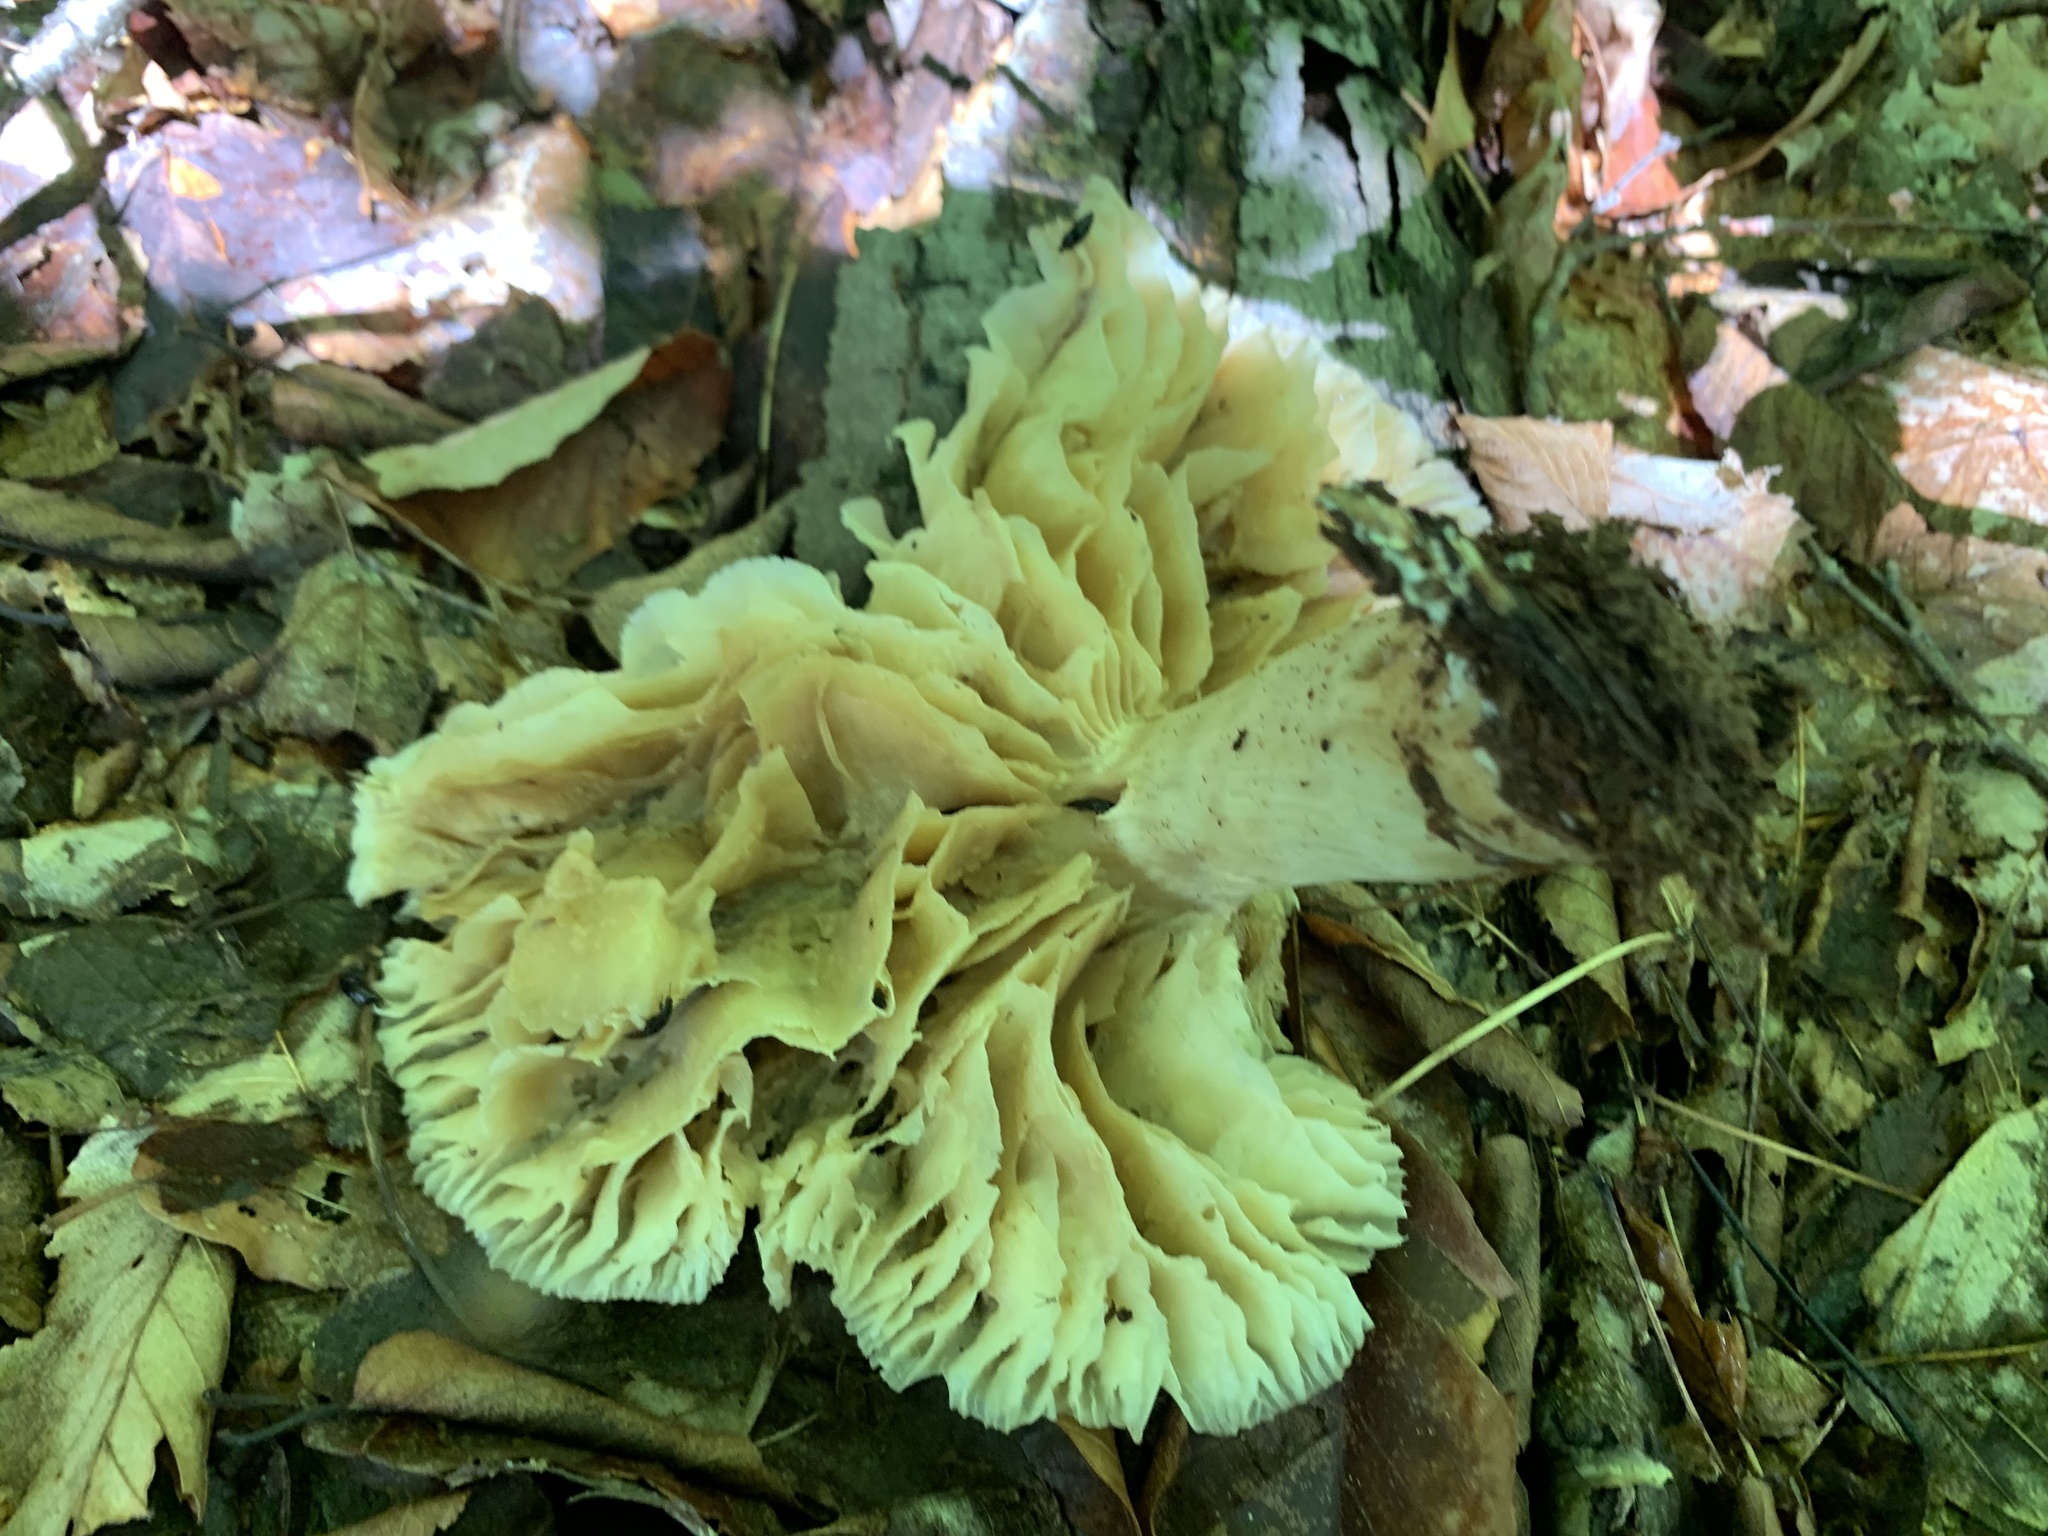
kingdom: Fungi
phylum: Basidiomycota
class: Agaricomycetes
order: Agaricales
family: Tricholomataceae
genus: Megacollybia
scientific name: Megacollybia rodmanii
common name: Eastern american platterful mushroom
